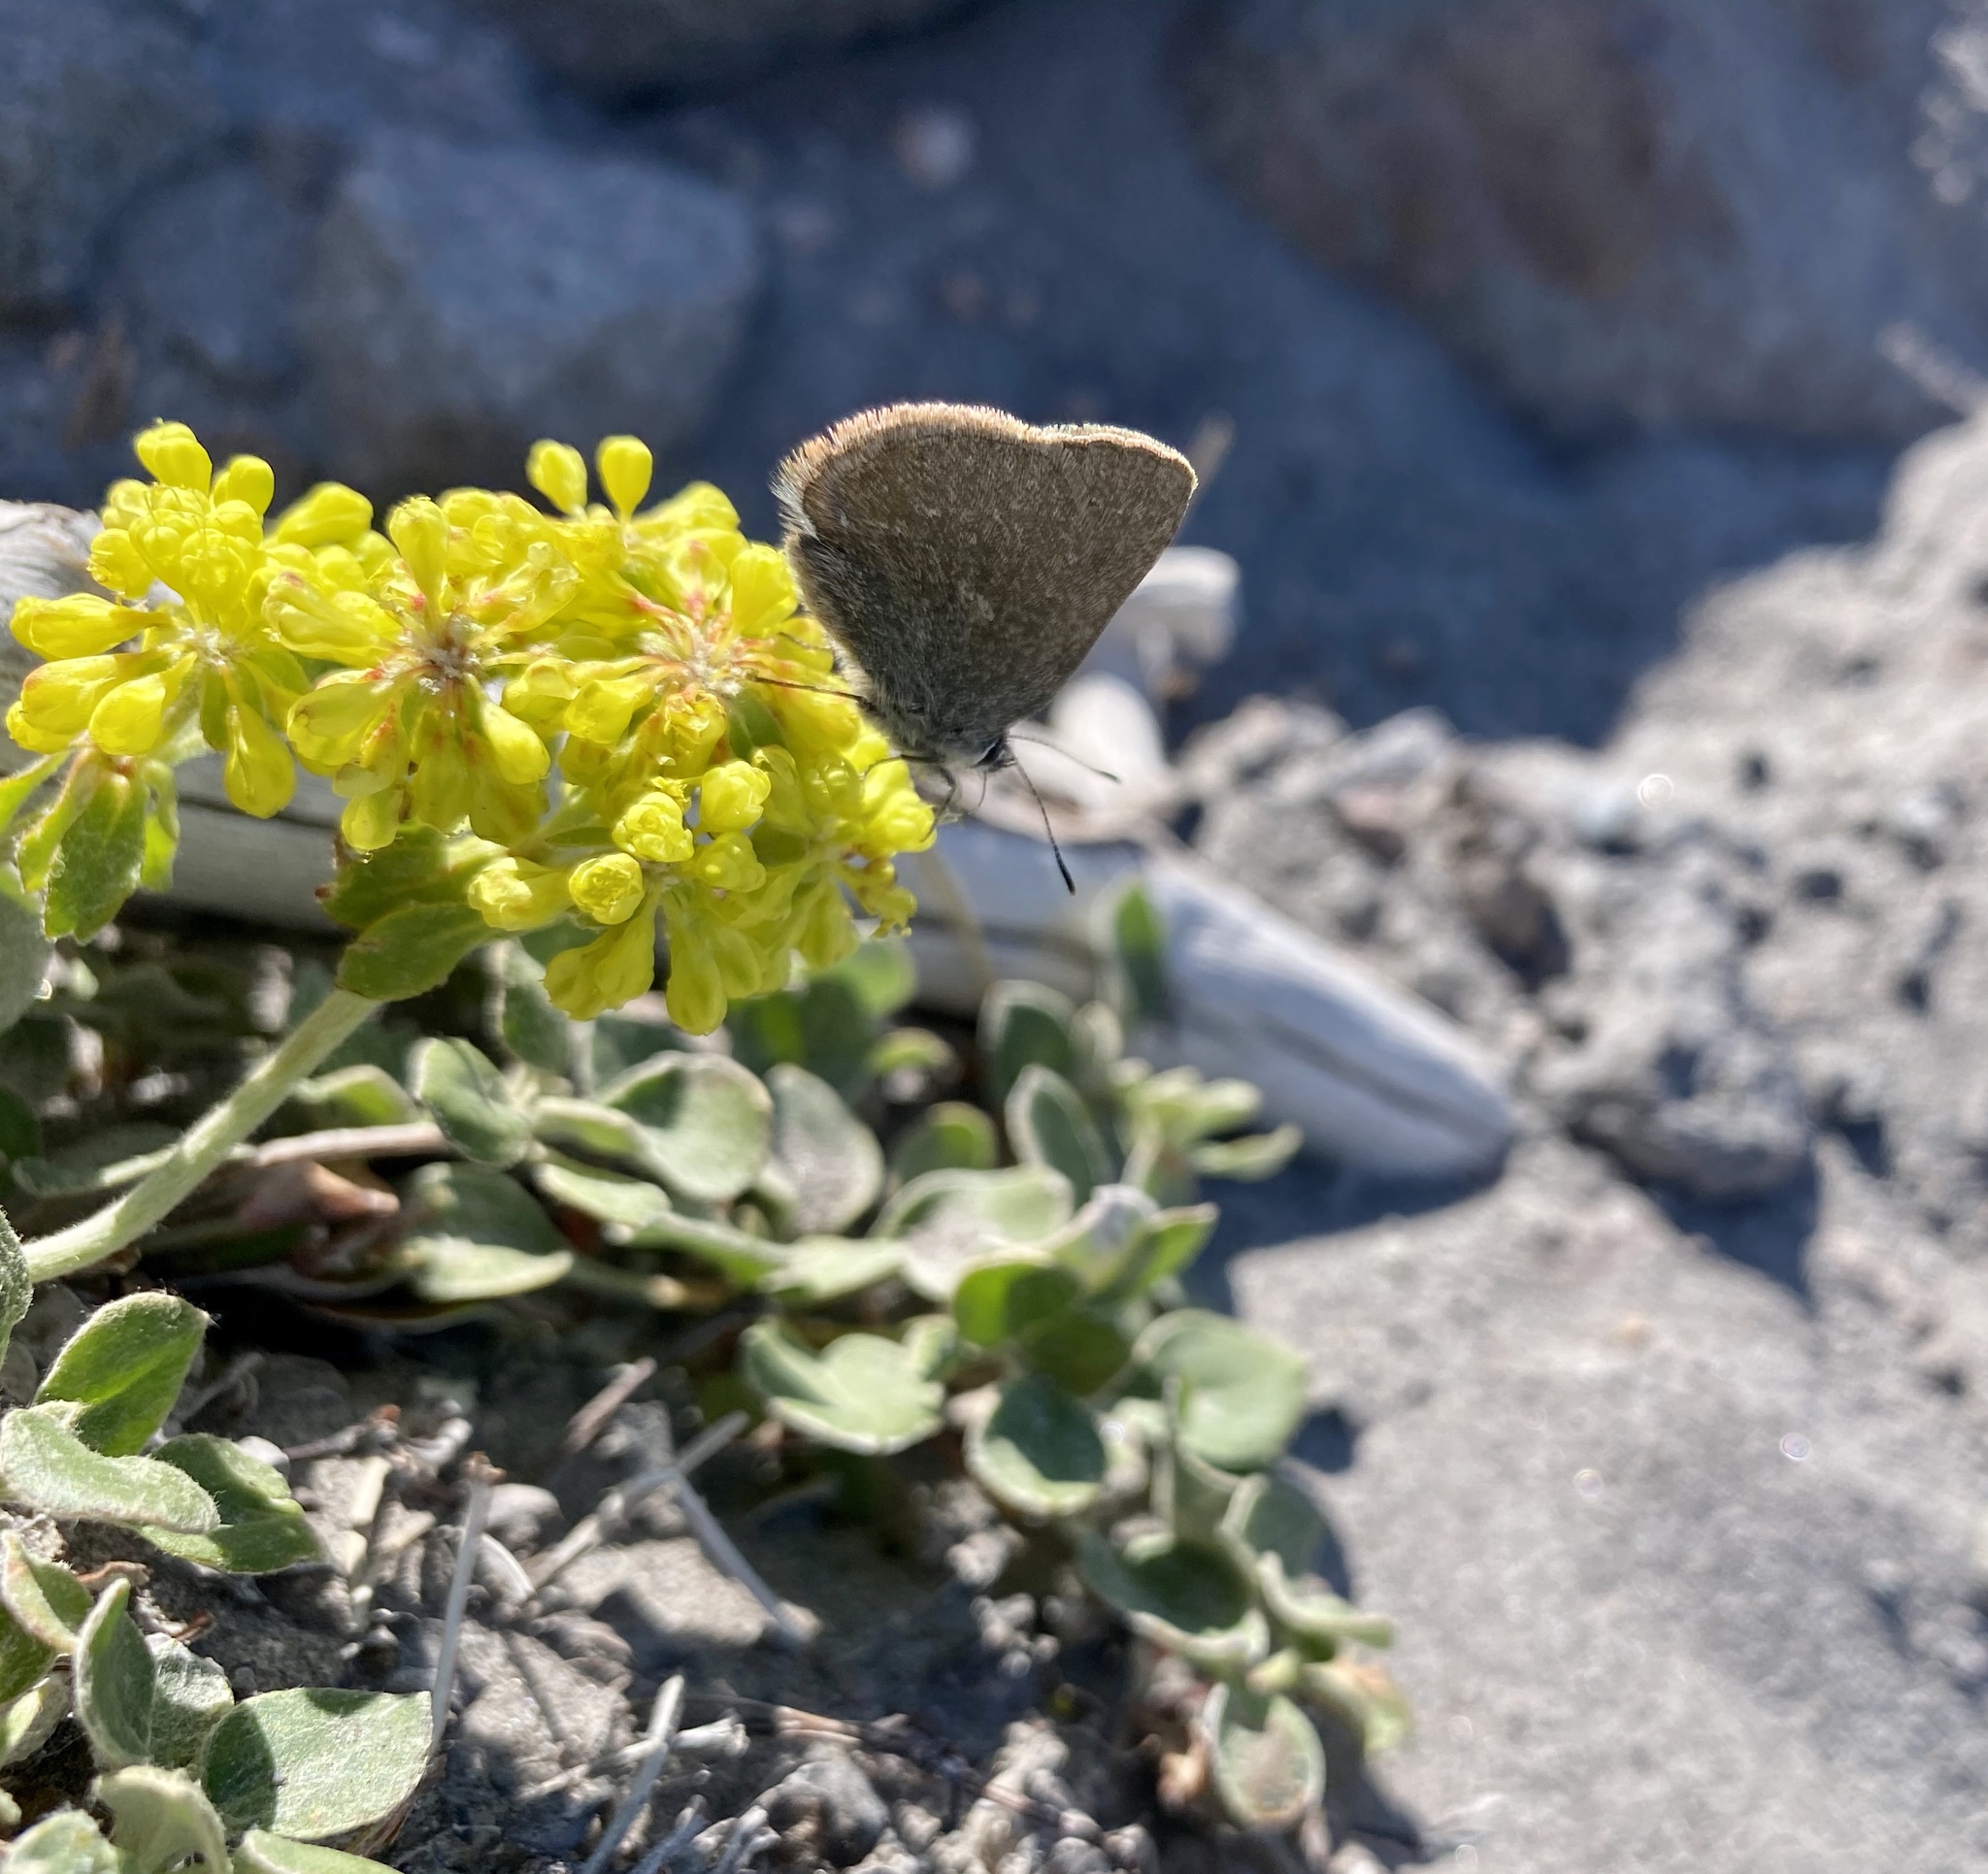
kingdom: Animalia
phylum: Arthropoda
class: Insecta
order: Lepidoptera
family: Lycaenidae
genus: Satyrium
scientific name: Satyrium fuliginosa
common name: Western sooty hairstreak
